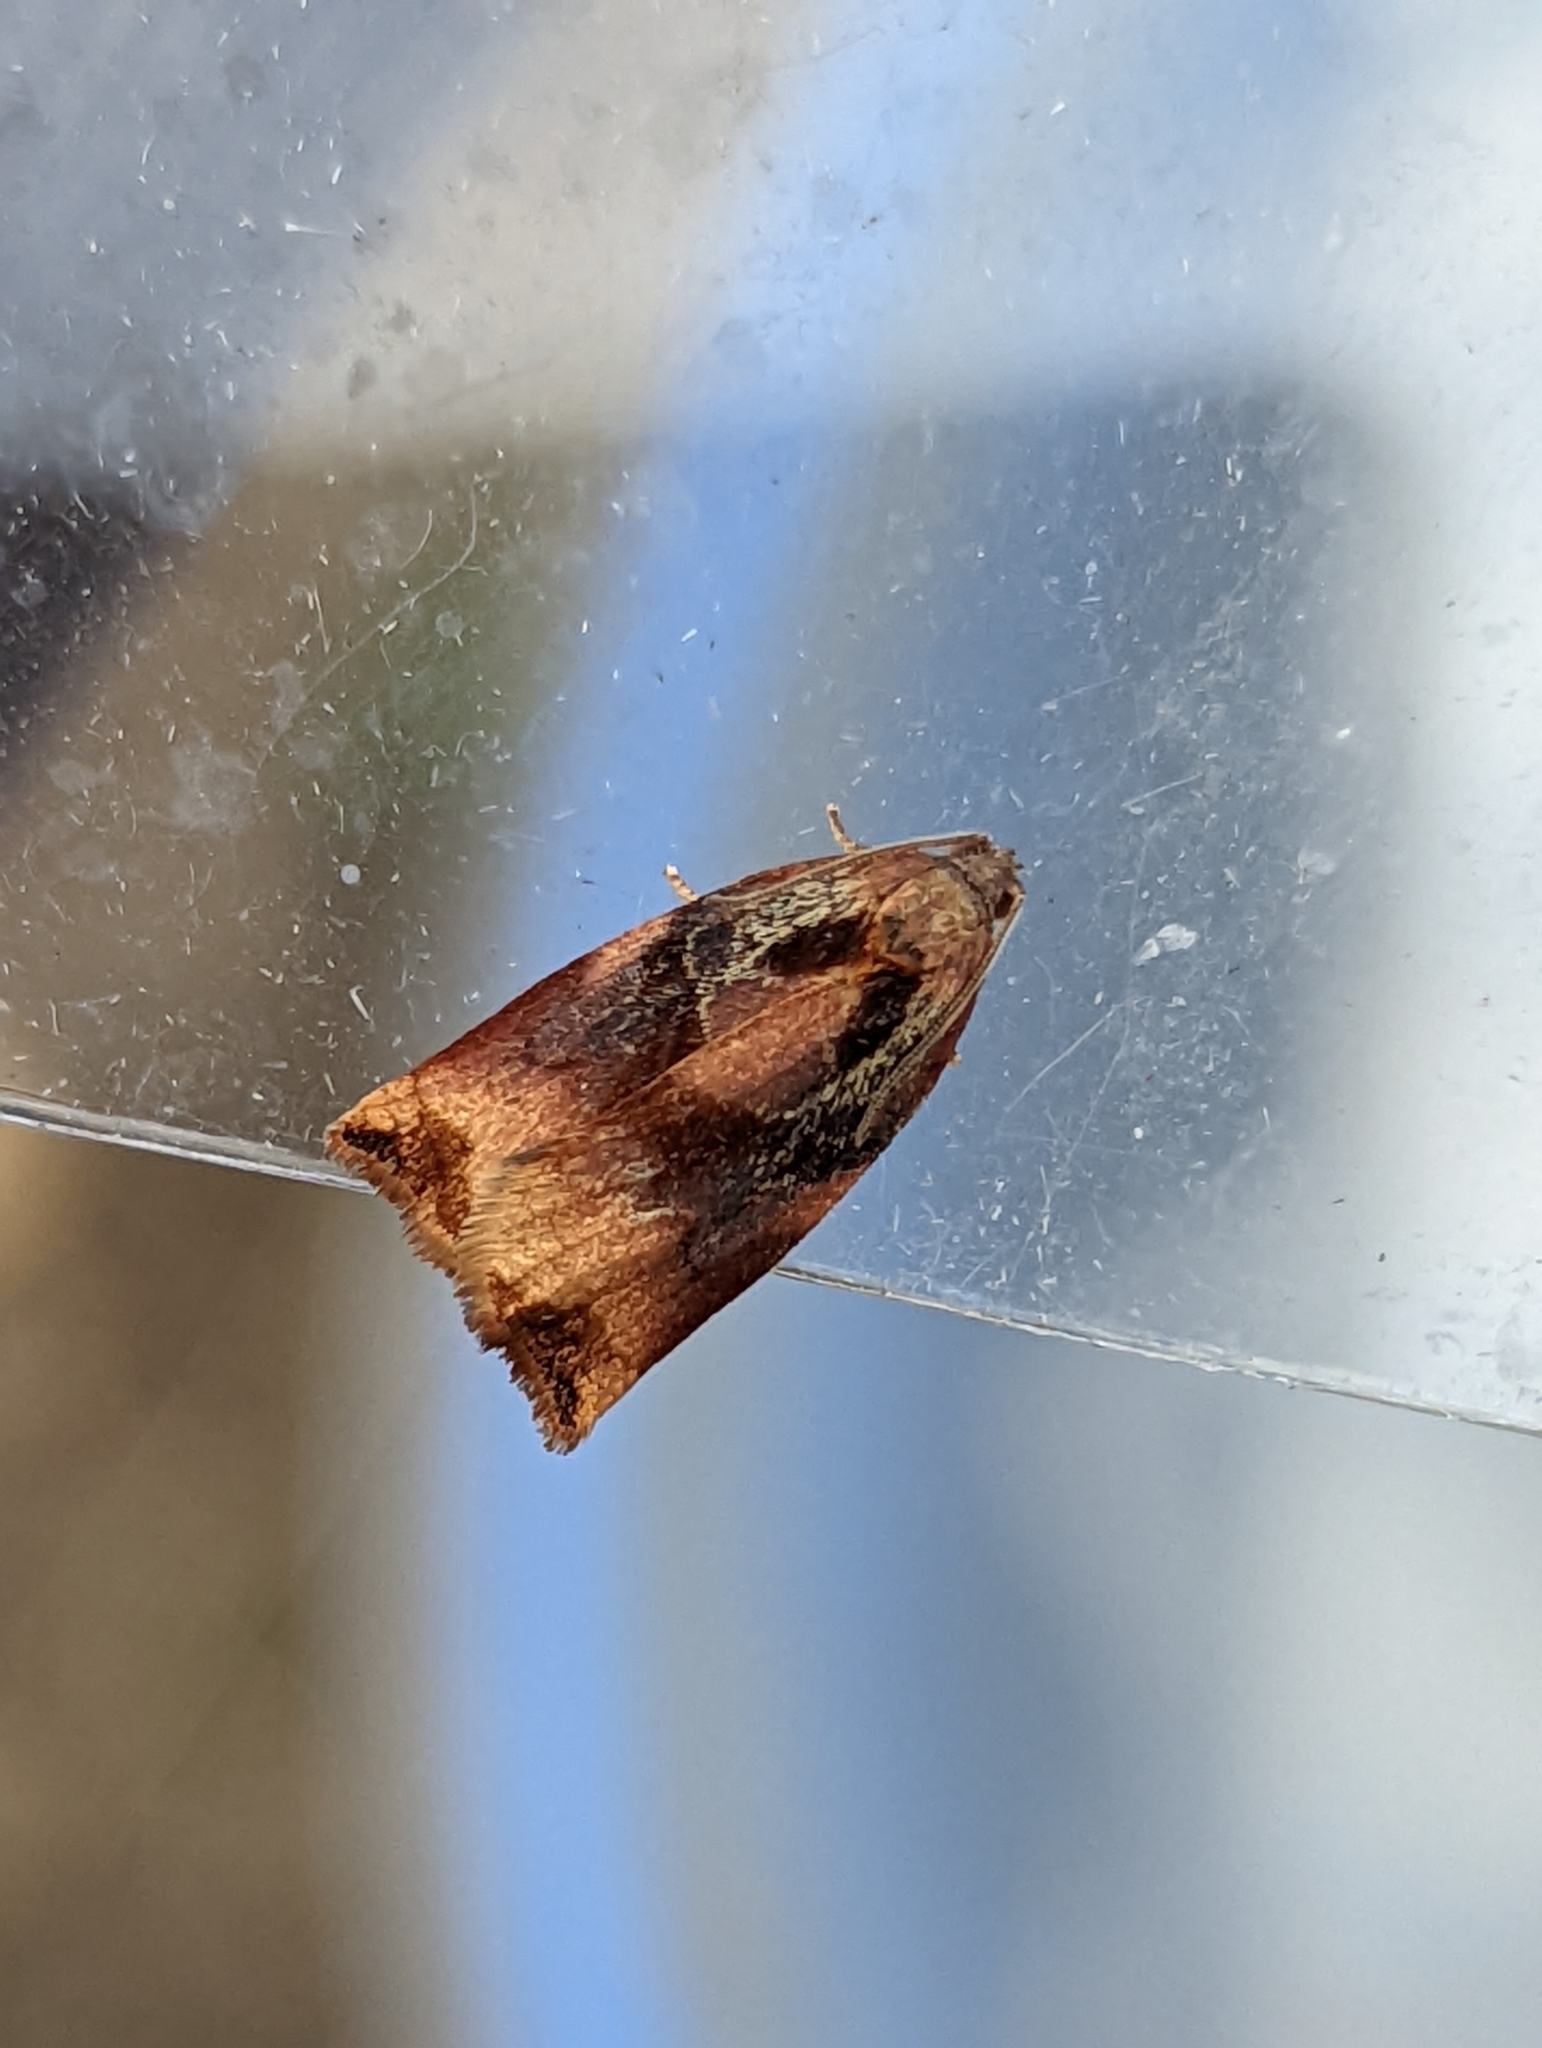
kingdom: Animalia
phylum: Arthropoda
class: Insecta
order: Lepidoptera
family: Tortricidae
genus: Archips
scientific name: Archips podana
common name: Large fruit-tree tortrix
